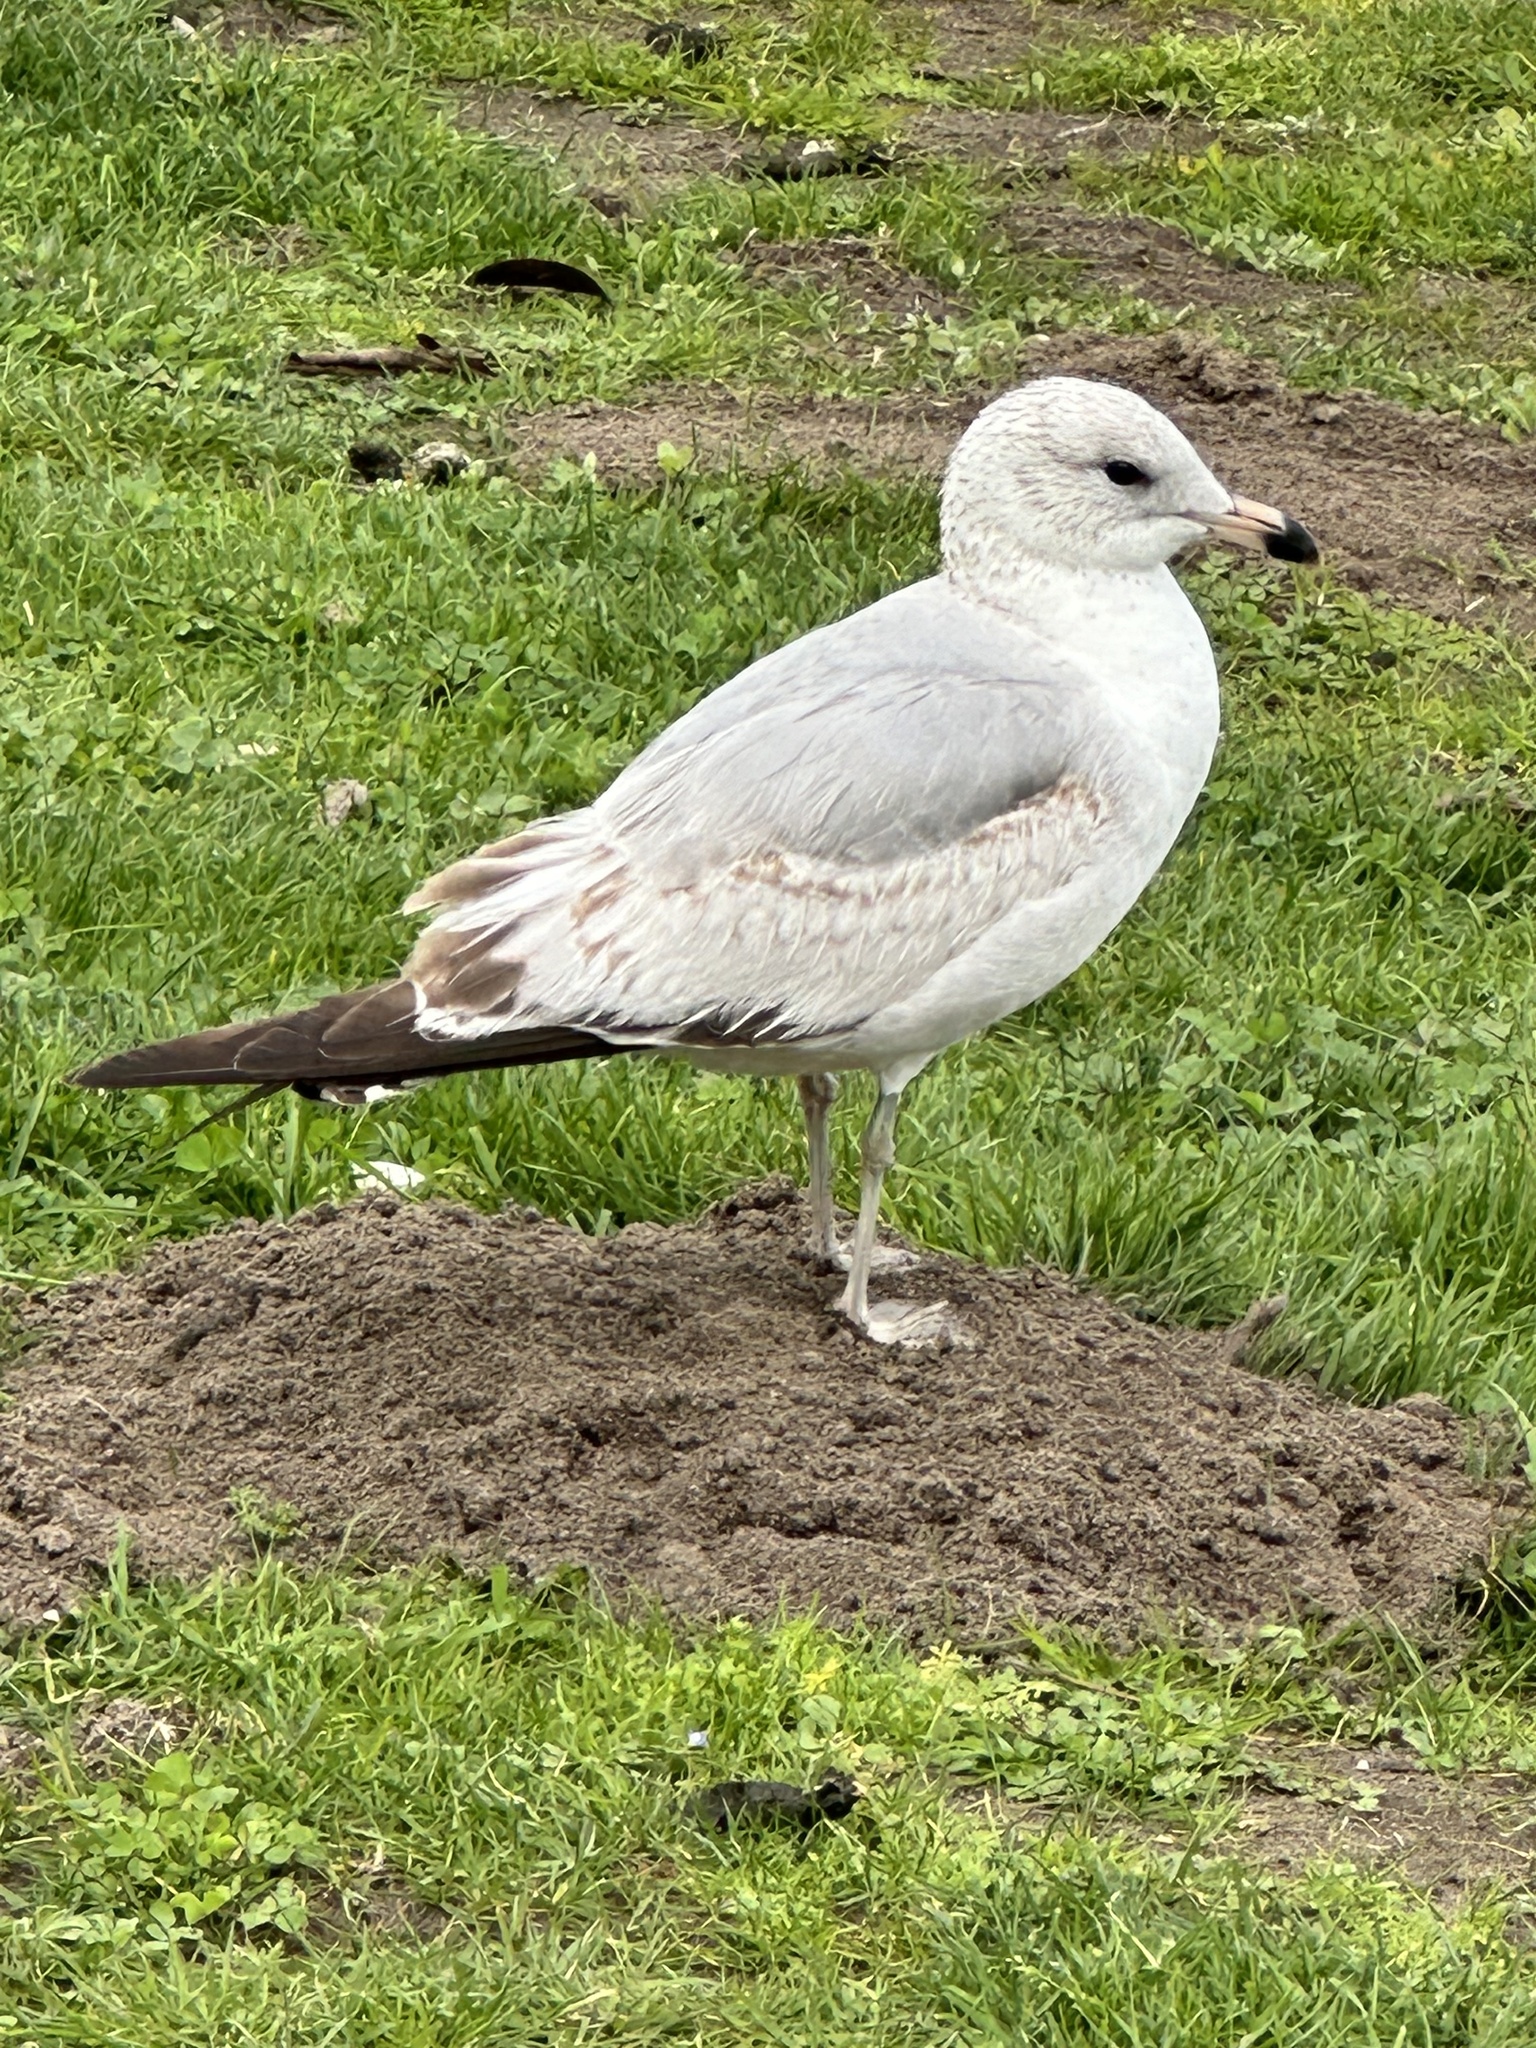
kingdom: Animalia
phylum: Chordata
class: Aves
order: Charadriiformes
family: Laridae
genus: Larus
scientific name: Larus delawarensis
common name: Ring-billed gull
